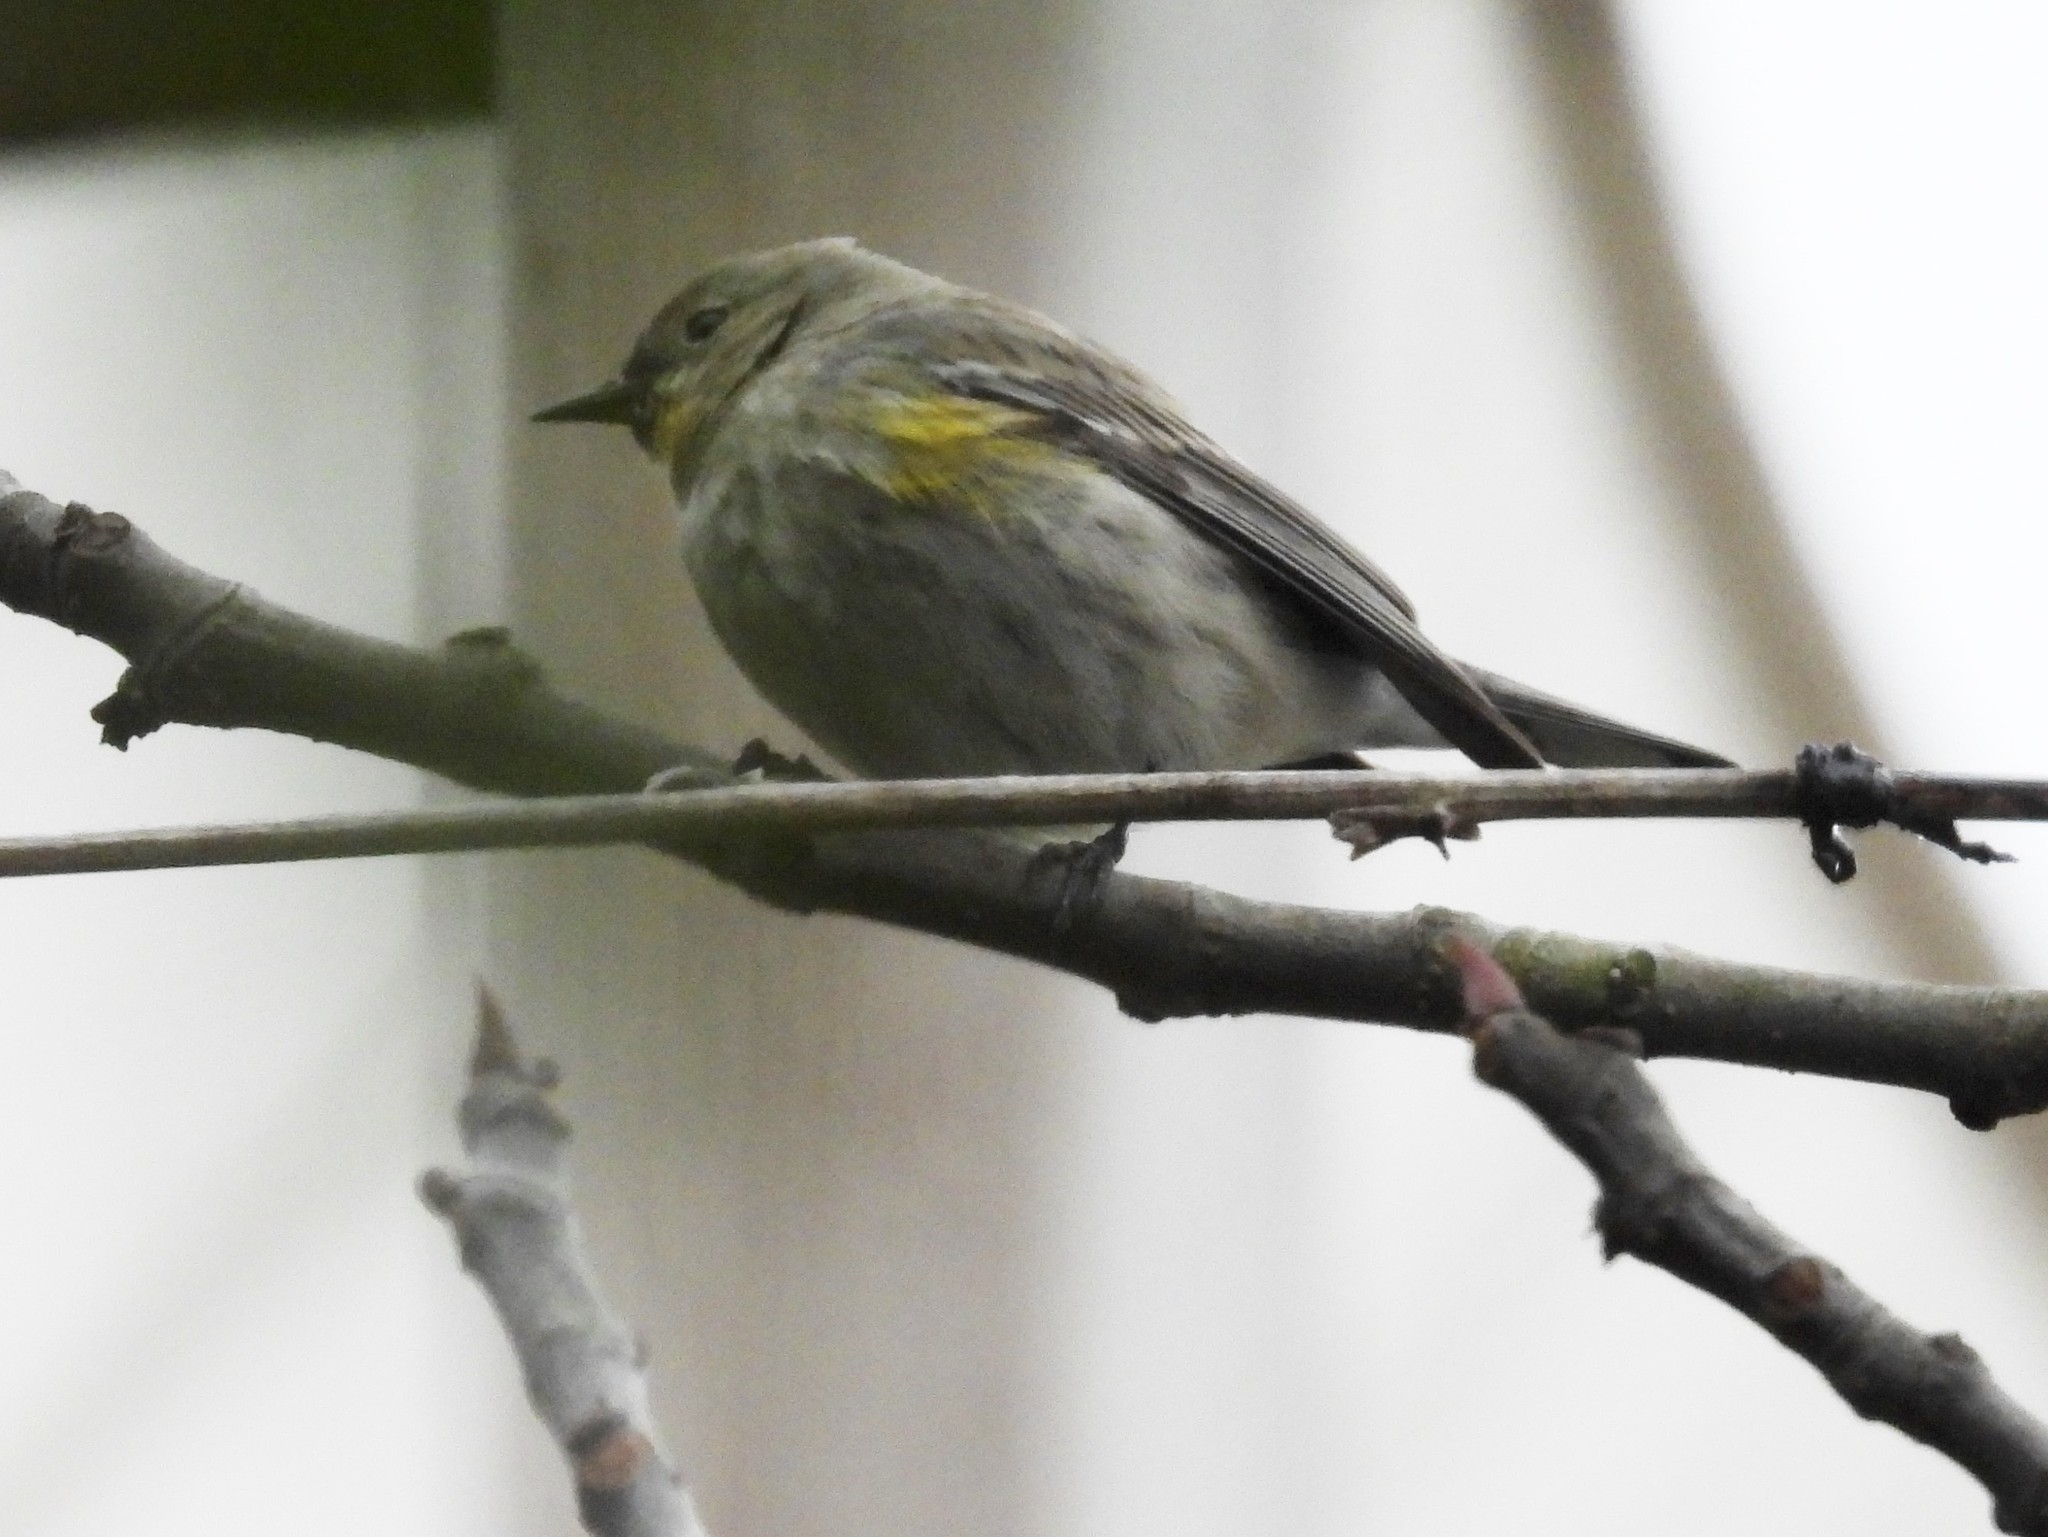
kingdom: Animalia
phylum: Chordata
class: Aves
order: Passeriformes
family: Parulidae
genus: Setophaga
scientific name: Setophaga coronata
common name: Myrtle warbler
